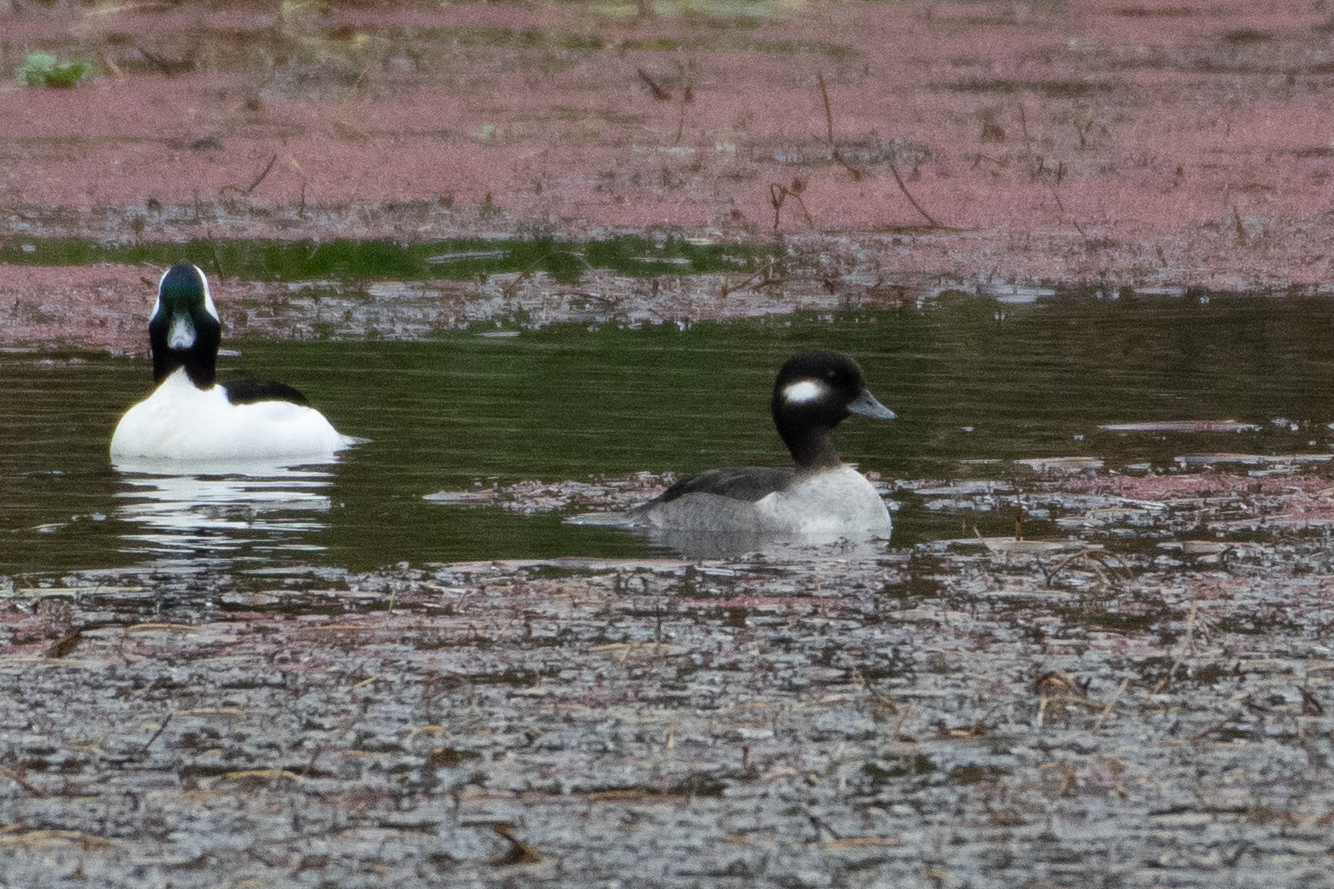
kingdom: Animalia
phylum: Chordata
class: Aves
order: Anseriformes
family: Anatidae
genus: Bucephala
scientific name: Bucephala albeola
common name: Bufflehead
